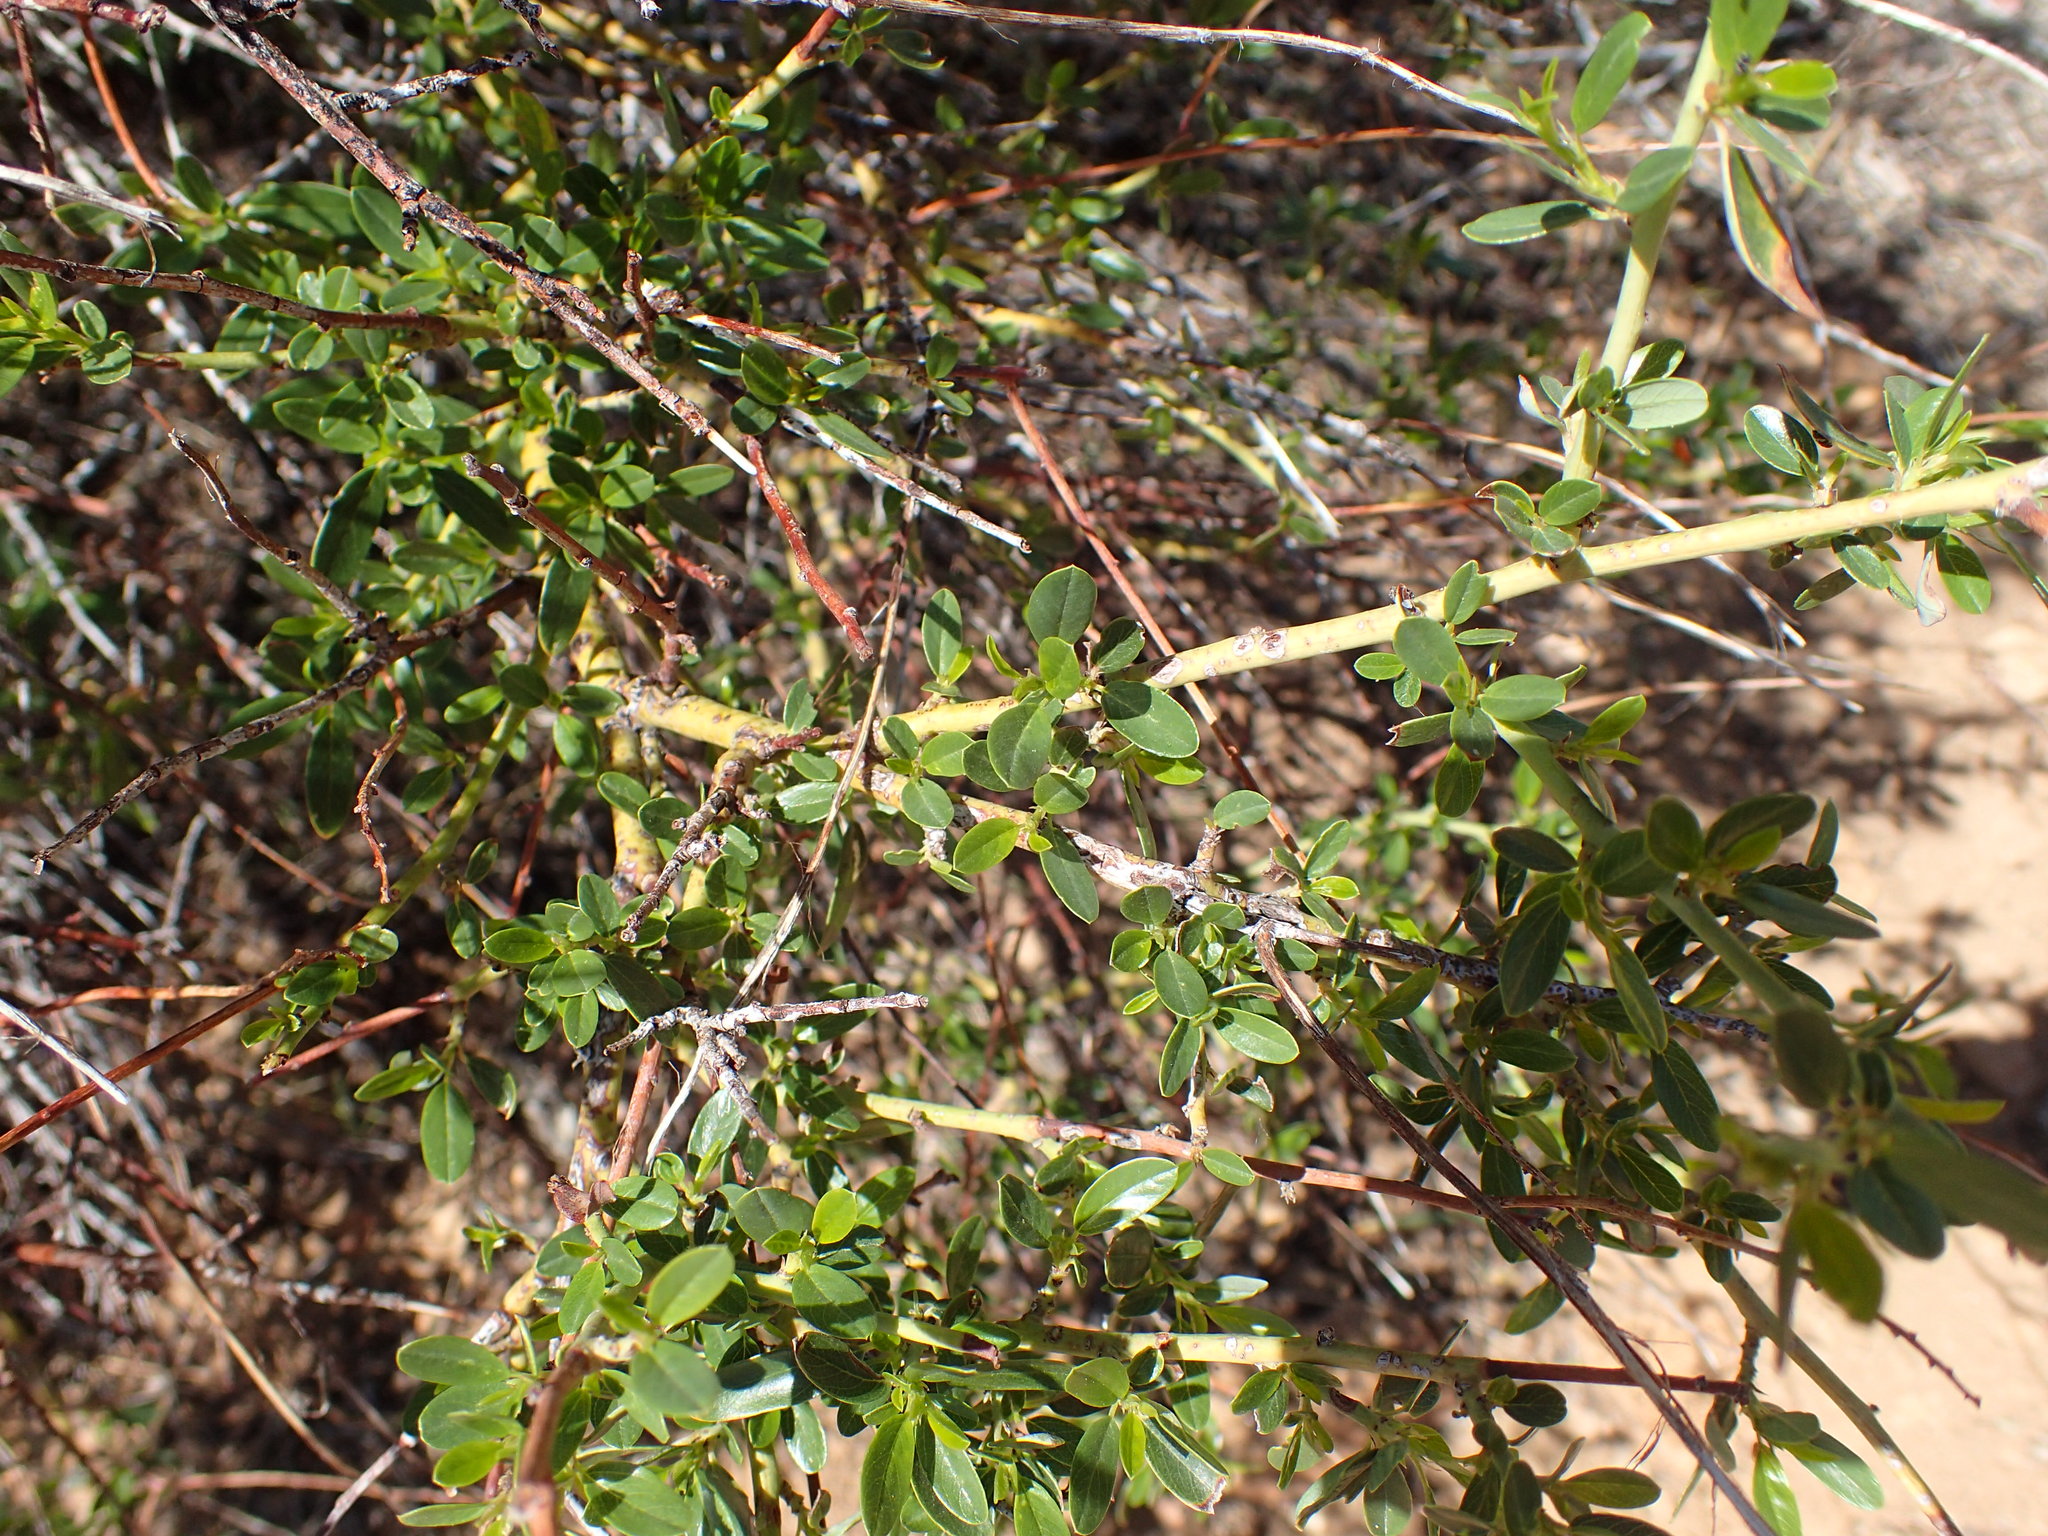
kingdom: Plantae
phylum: Tracheophyta
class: Magnoliopsida
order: Rosales
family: Rhamnaceae
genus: Ceanothus
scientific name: Ceanothus palmeri
